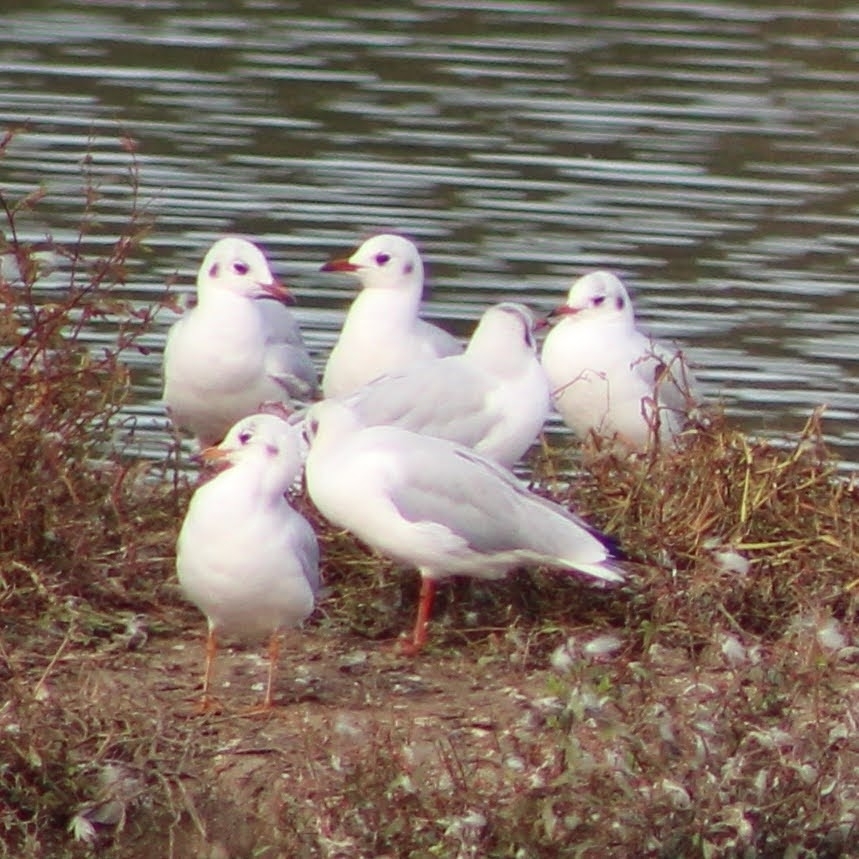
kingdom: Animalia
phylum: Chordata
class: Aves
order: Charadriiformes
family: Laridae
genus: Chroicocephalus
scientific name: Chroicocephalus ridibundus
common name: Black-headed gull
